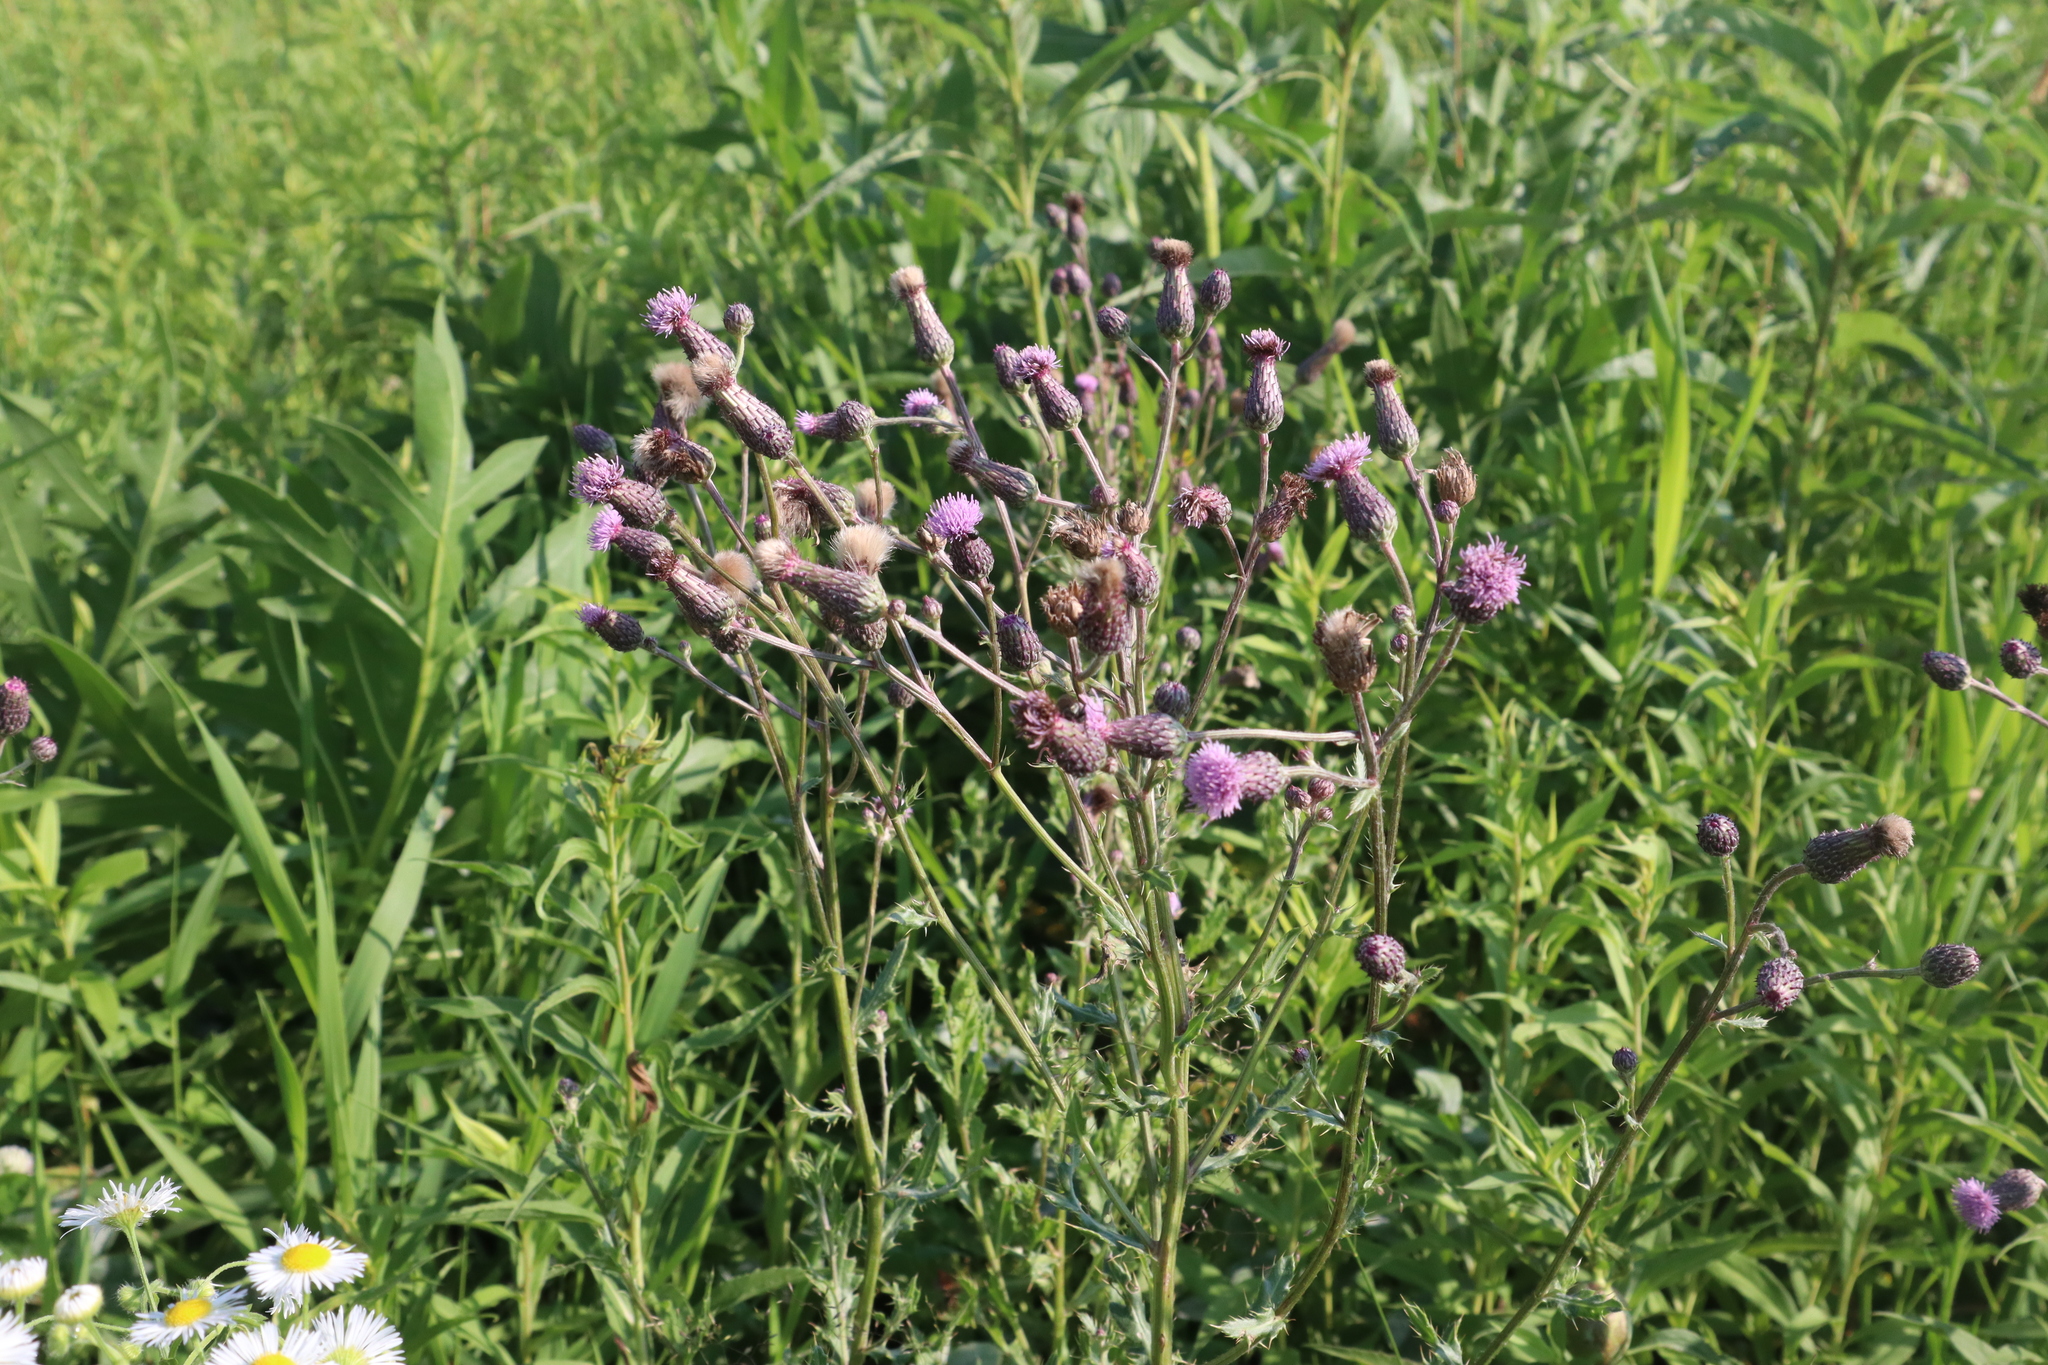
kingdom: Plantae
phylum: Tracheophyta
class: Magnoliopsida
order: Asterales
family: Asteraceae
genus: Cirsium
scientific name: Cirsium arvense
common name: Creeping thistle
